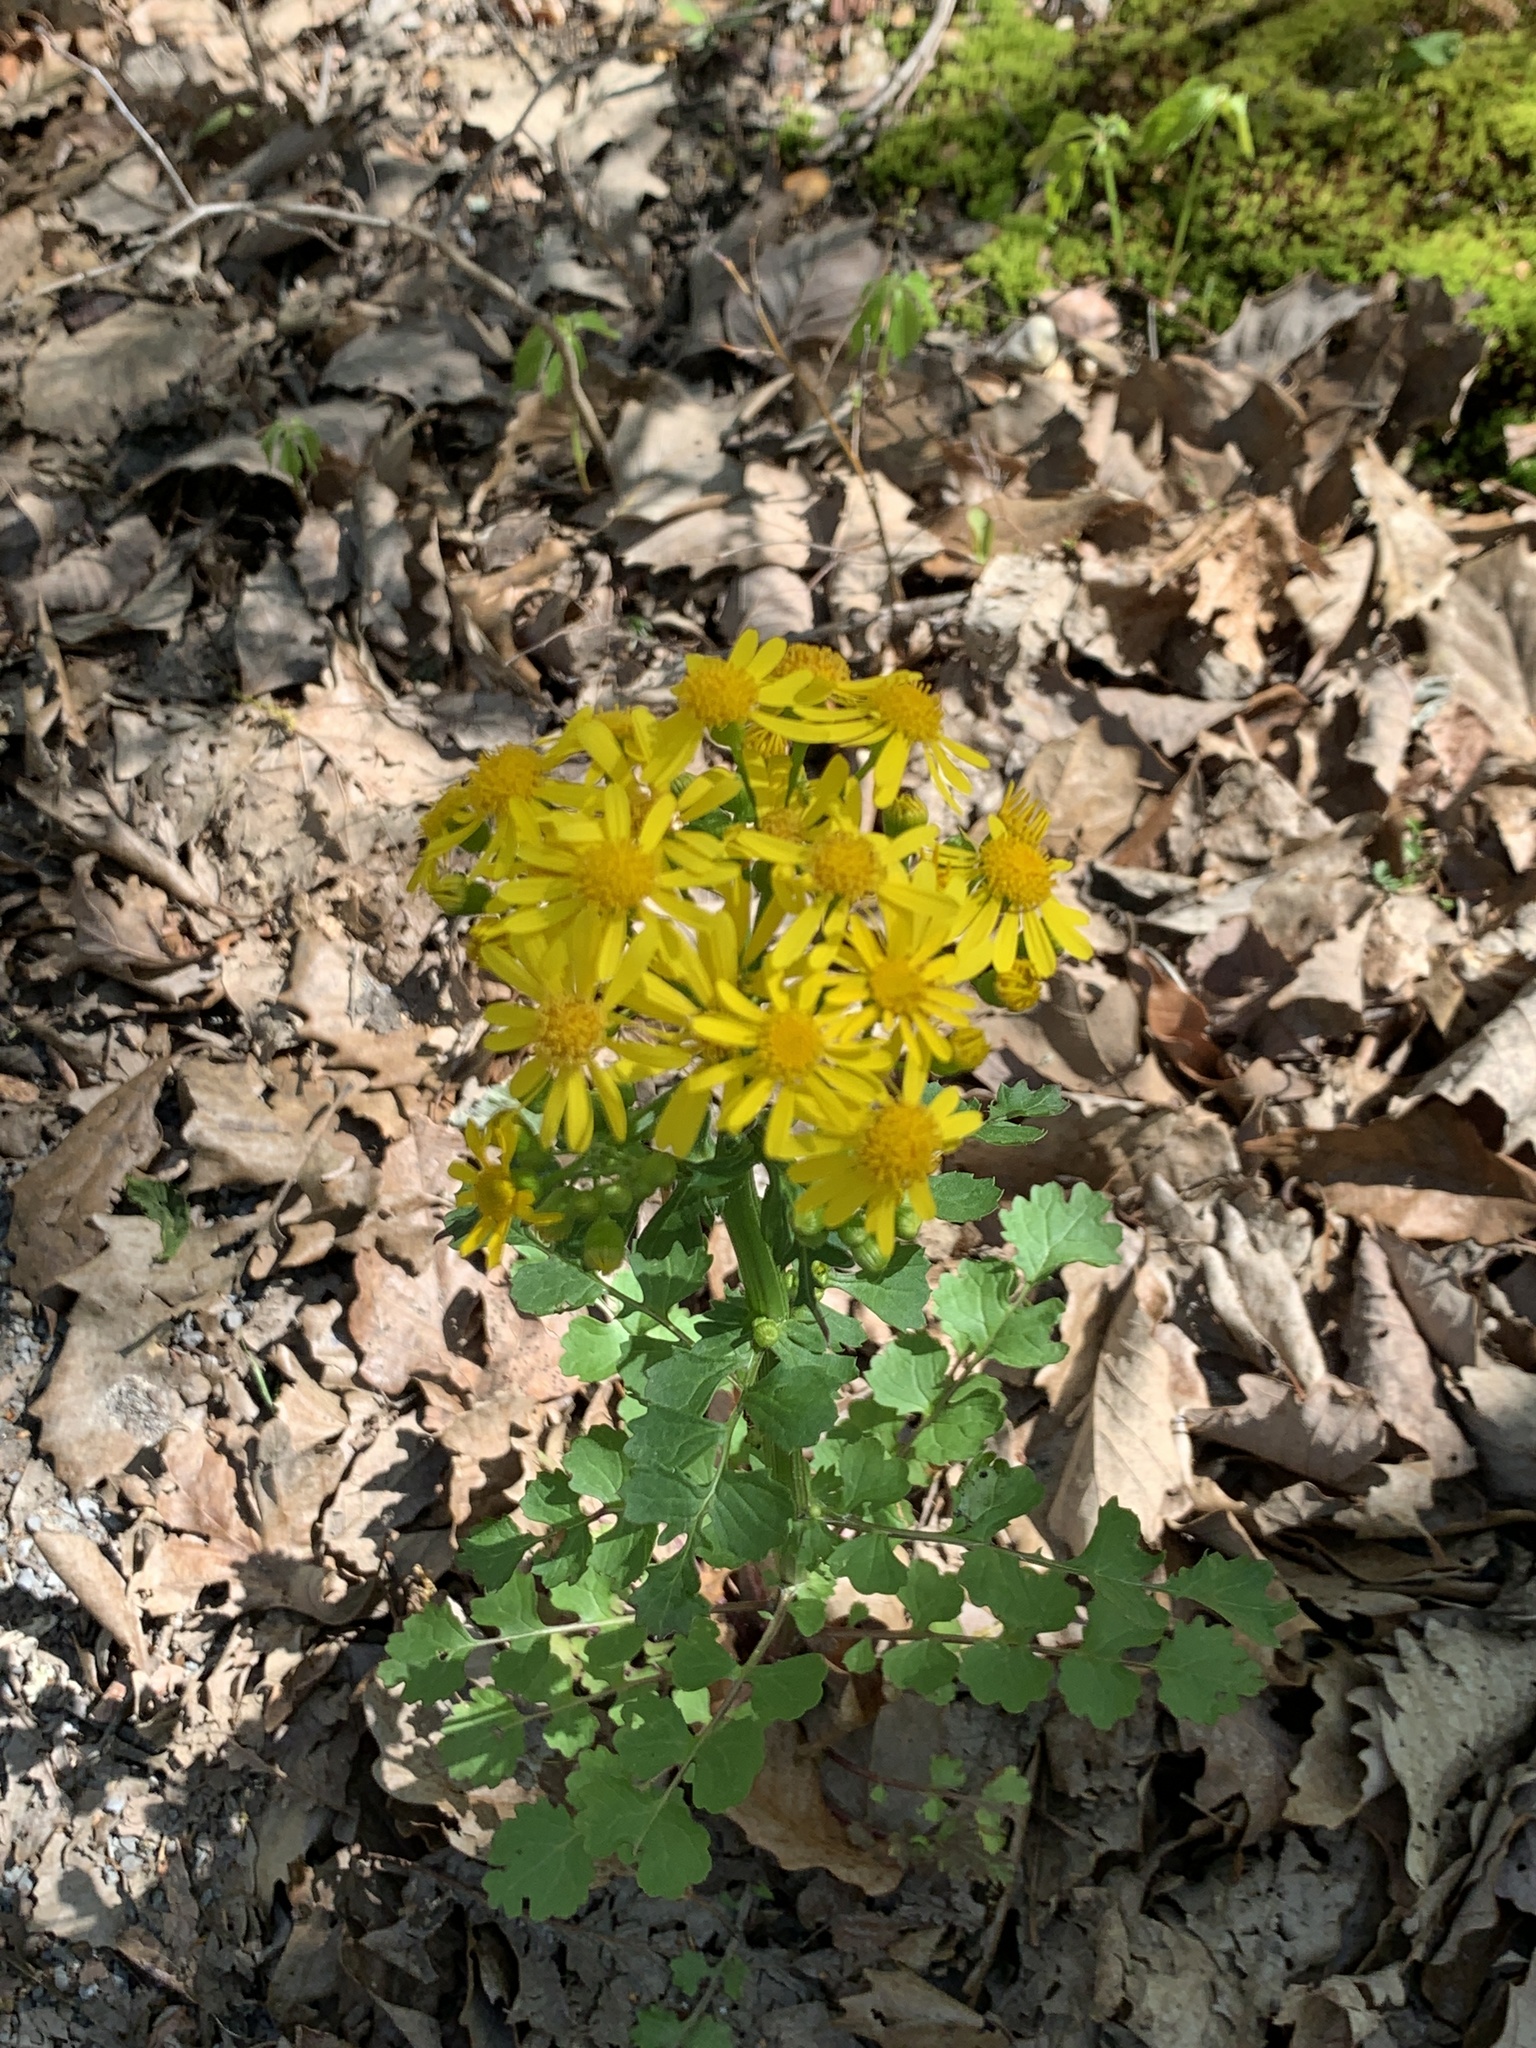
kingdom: Plantae
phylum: Tracheophyta
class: Magnoliopsida
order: Asterales
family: Asteraceae
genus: Packera
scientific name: Packera glabella
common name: Butterweed
